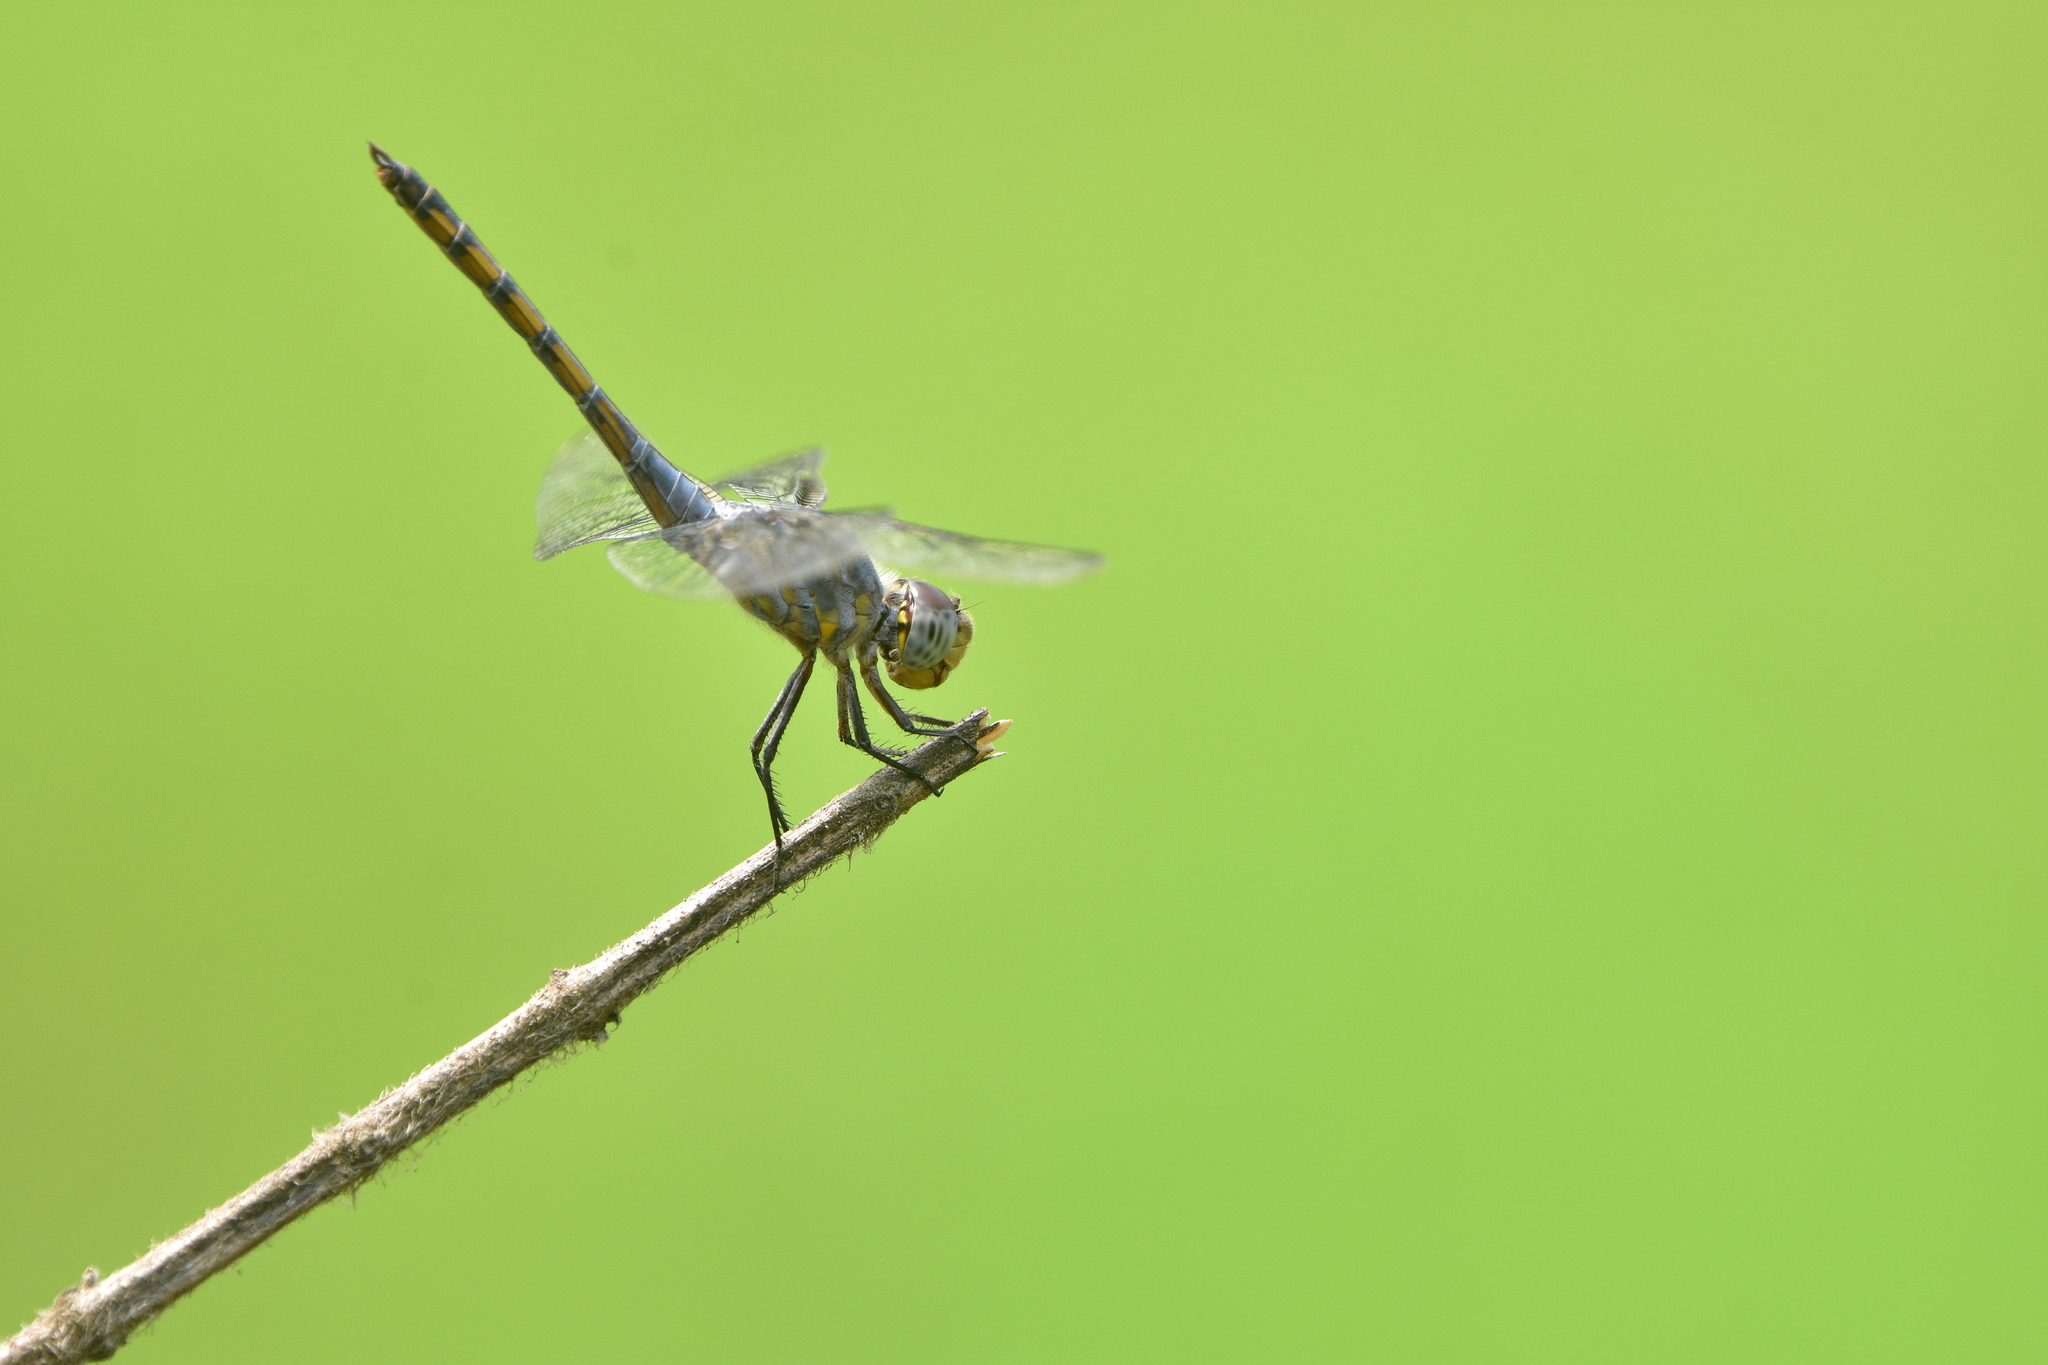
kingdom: Animalia
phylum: Arthropoda
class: Insecta
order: Odonata
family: Libellulidae
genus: Potamarcha
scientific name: Potamarcha congener
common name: Blue chaser
